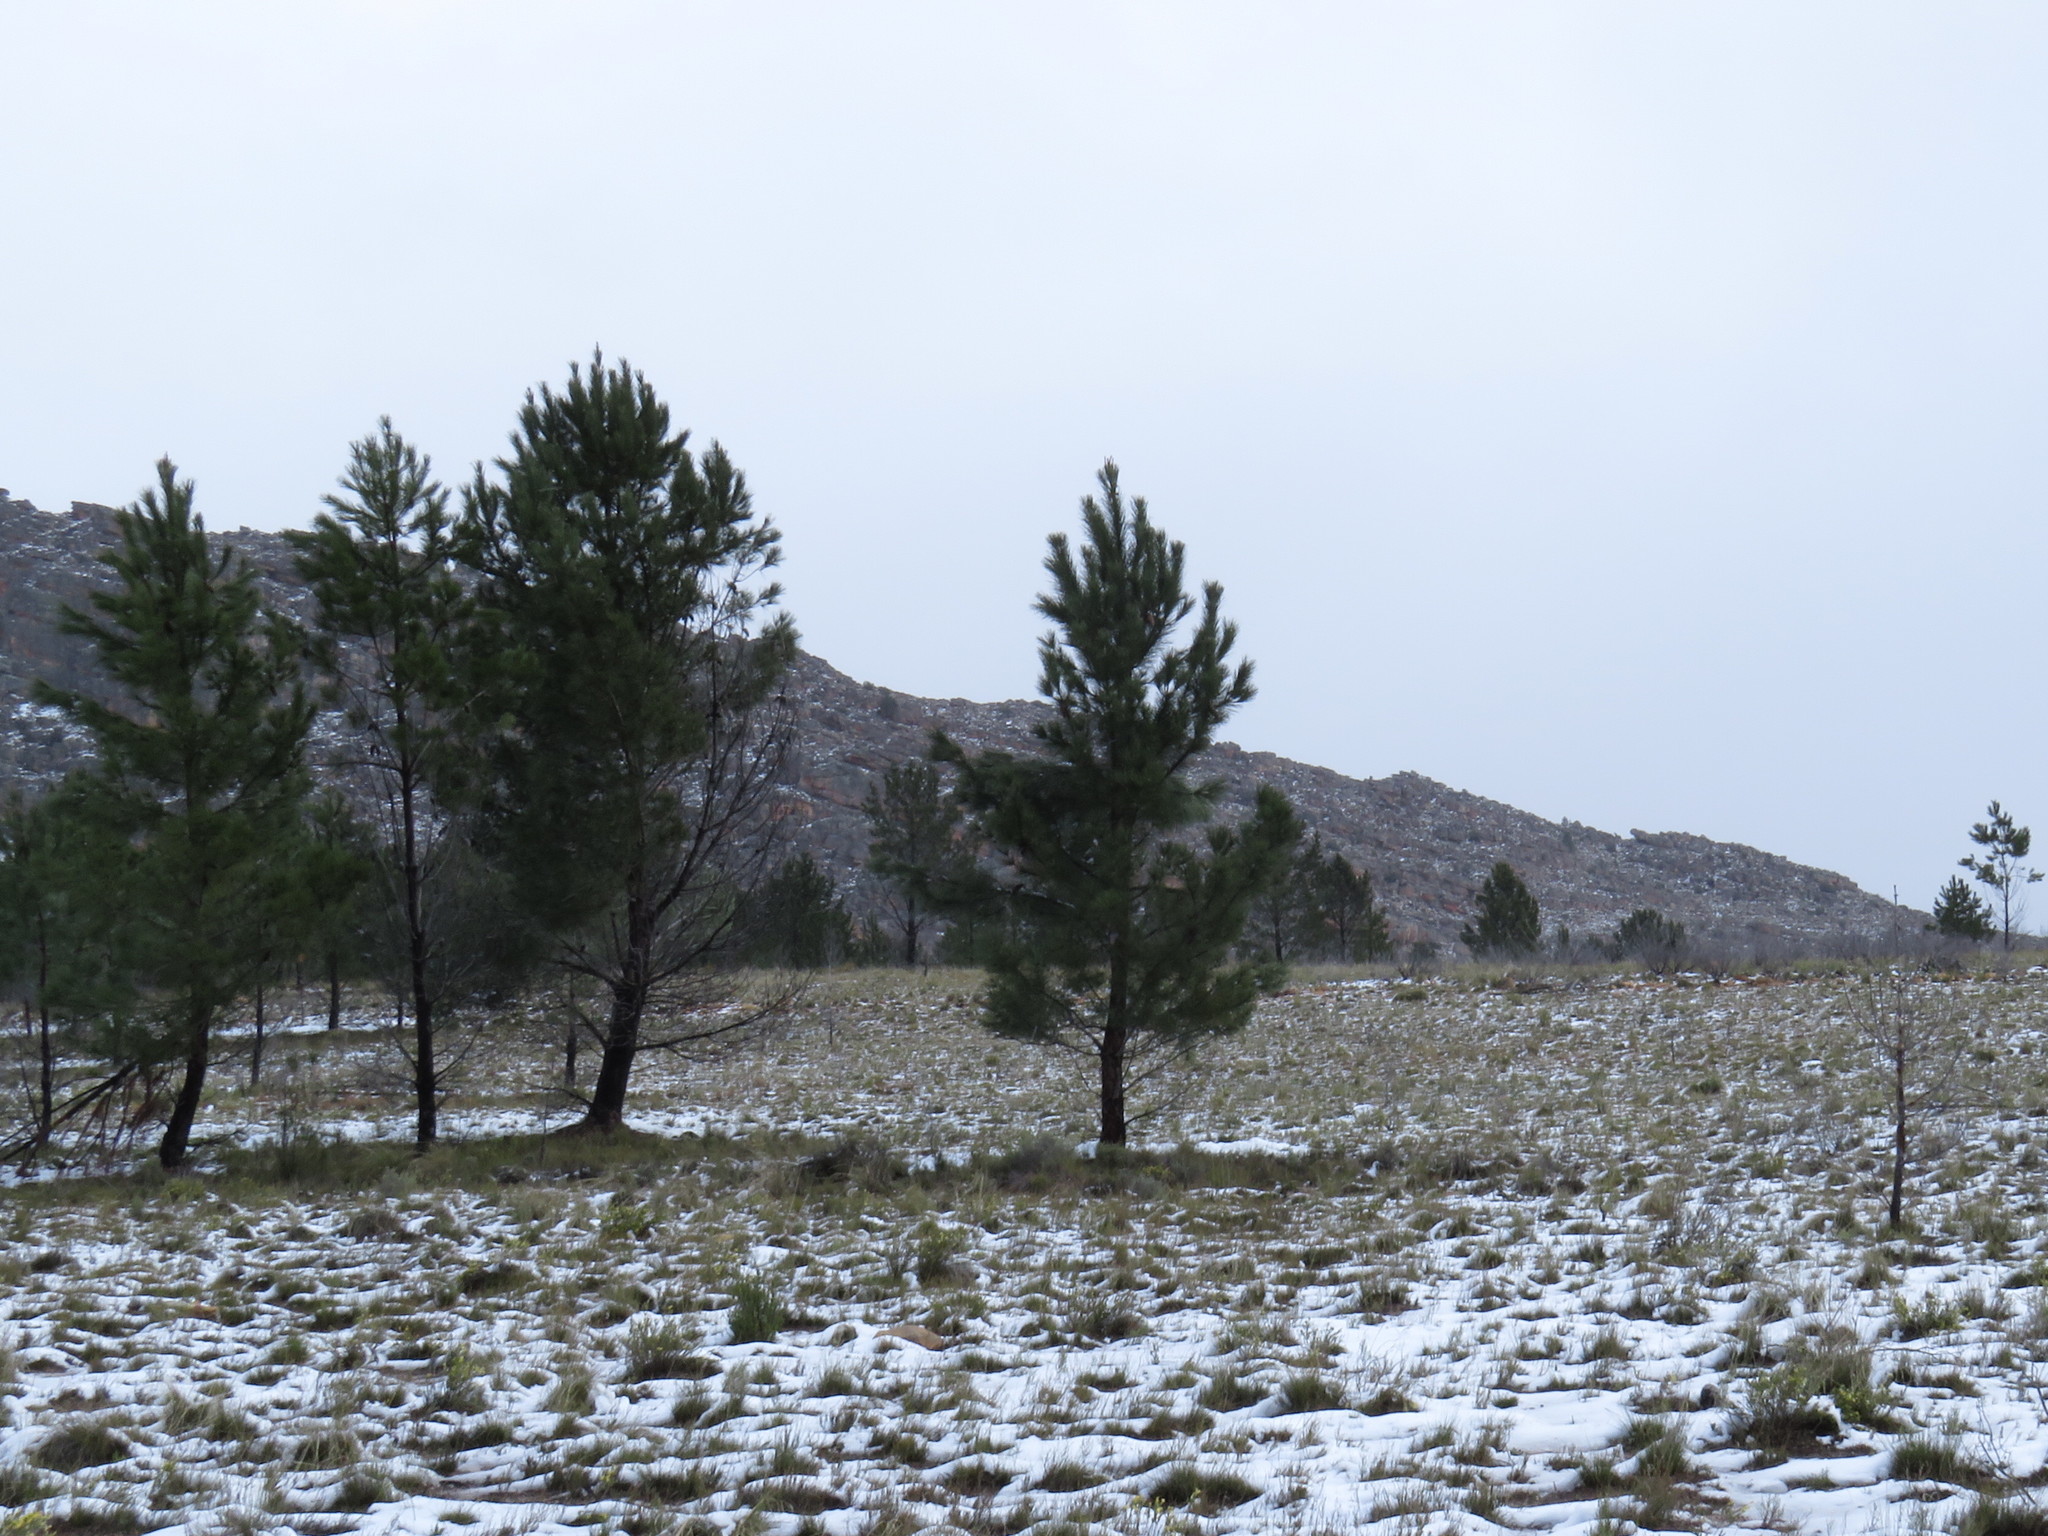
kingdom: Plantae
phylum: Tracheophyta
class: Pinopsida
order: Pinales
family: Pinaceae
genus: Pinus
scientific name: Pinus pinaster
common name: Maritime pine
